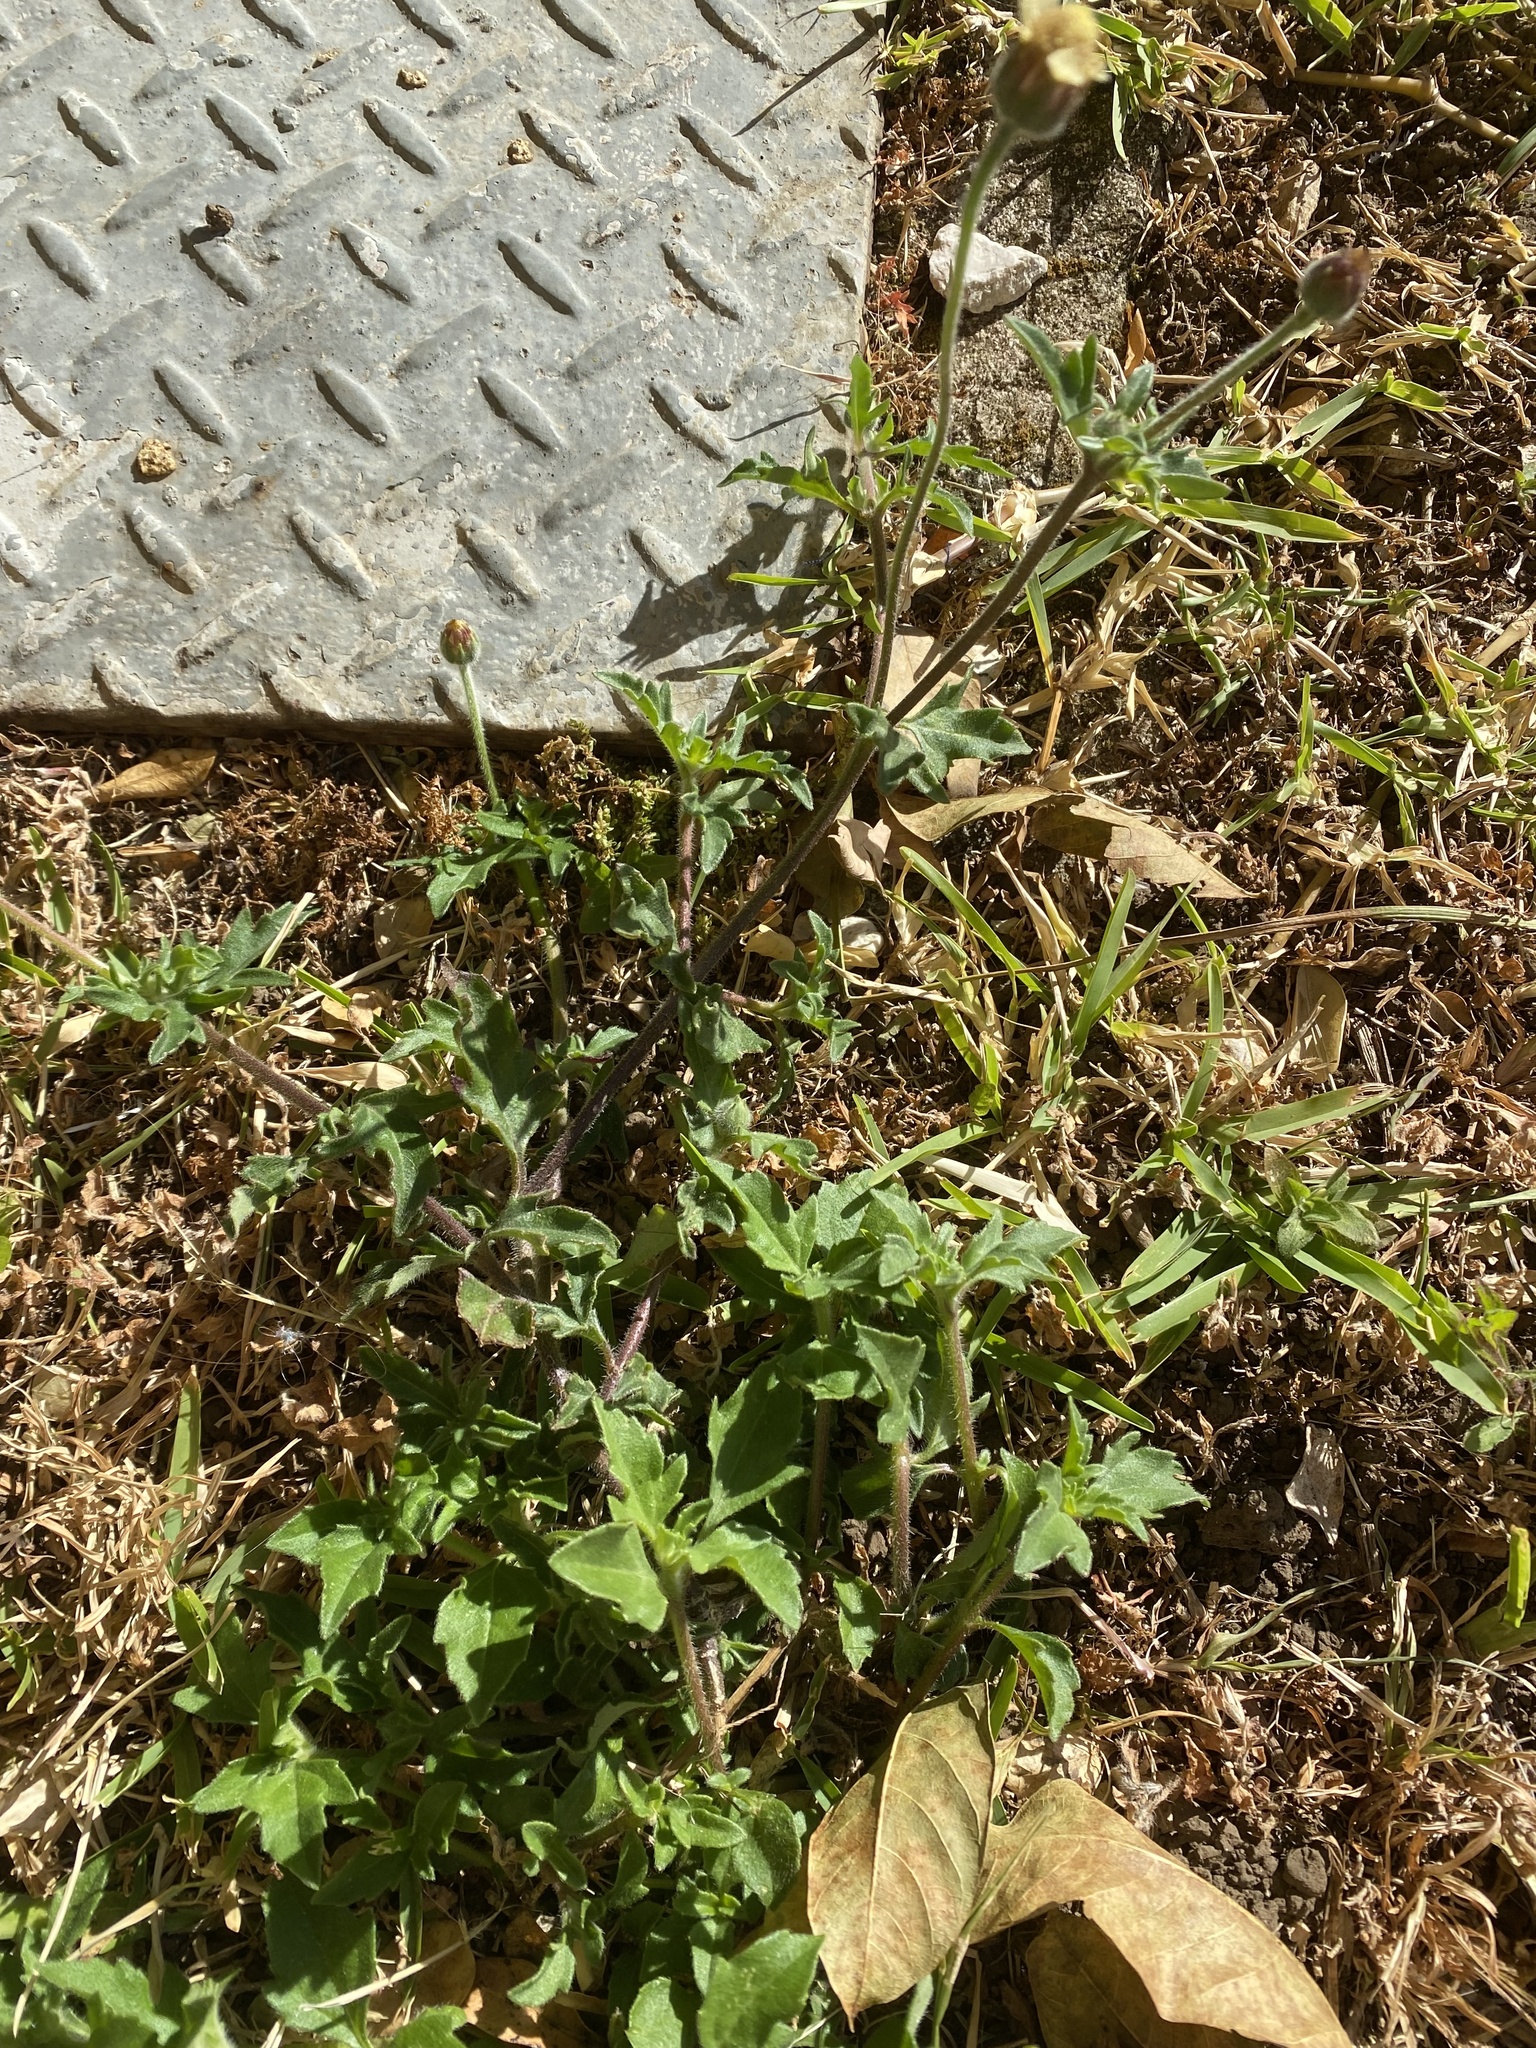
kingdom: Plantae
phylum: Tracheophyta
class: Magnoliopsida
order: Asterales
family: Asteraceae
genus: Tridax
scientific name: Tridax procumbens
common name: Coatbuttons
